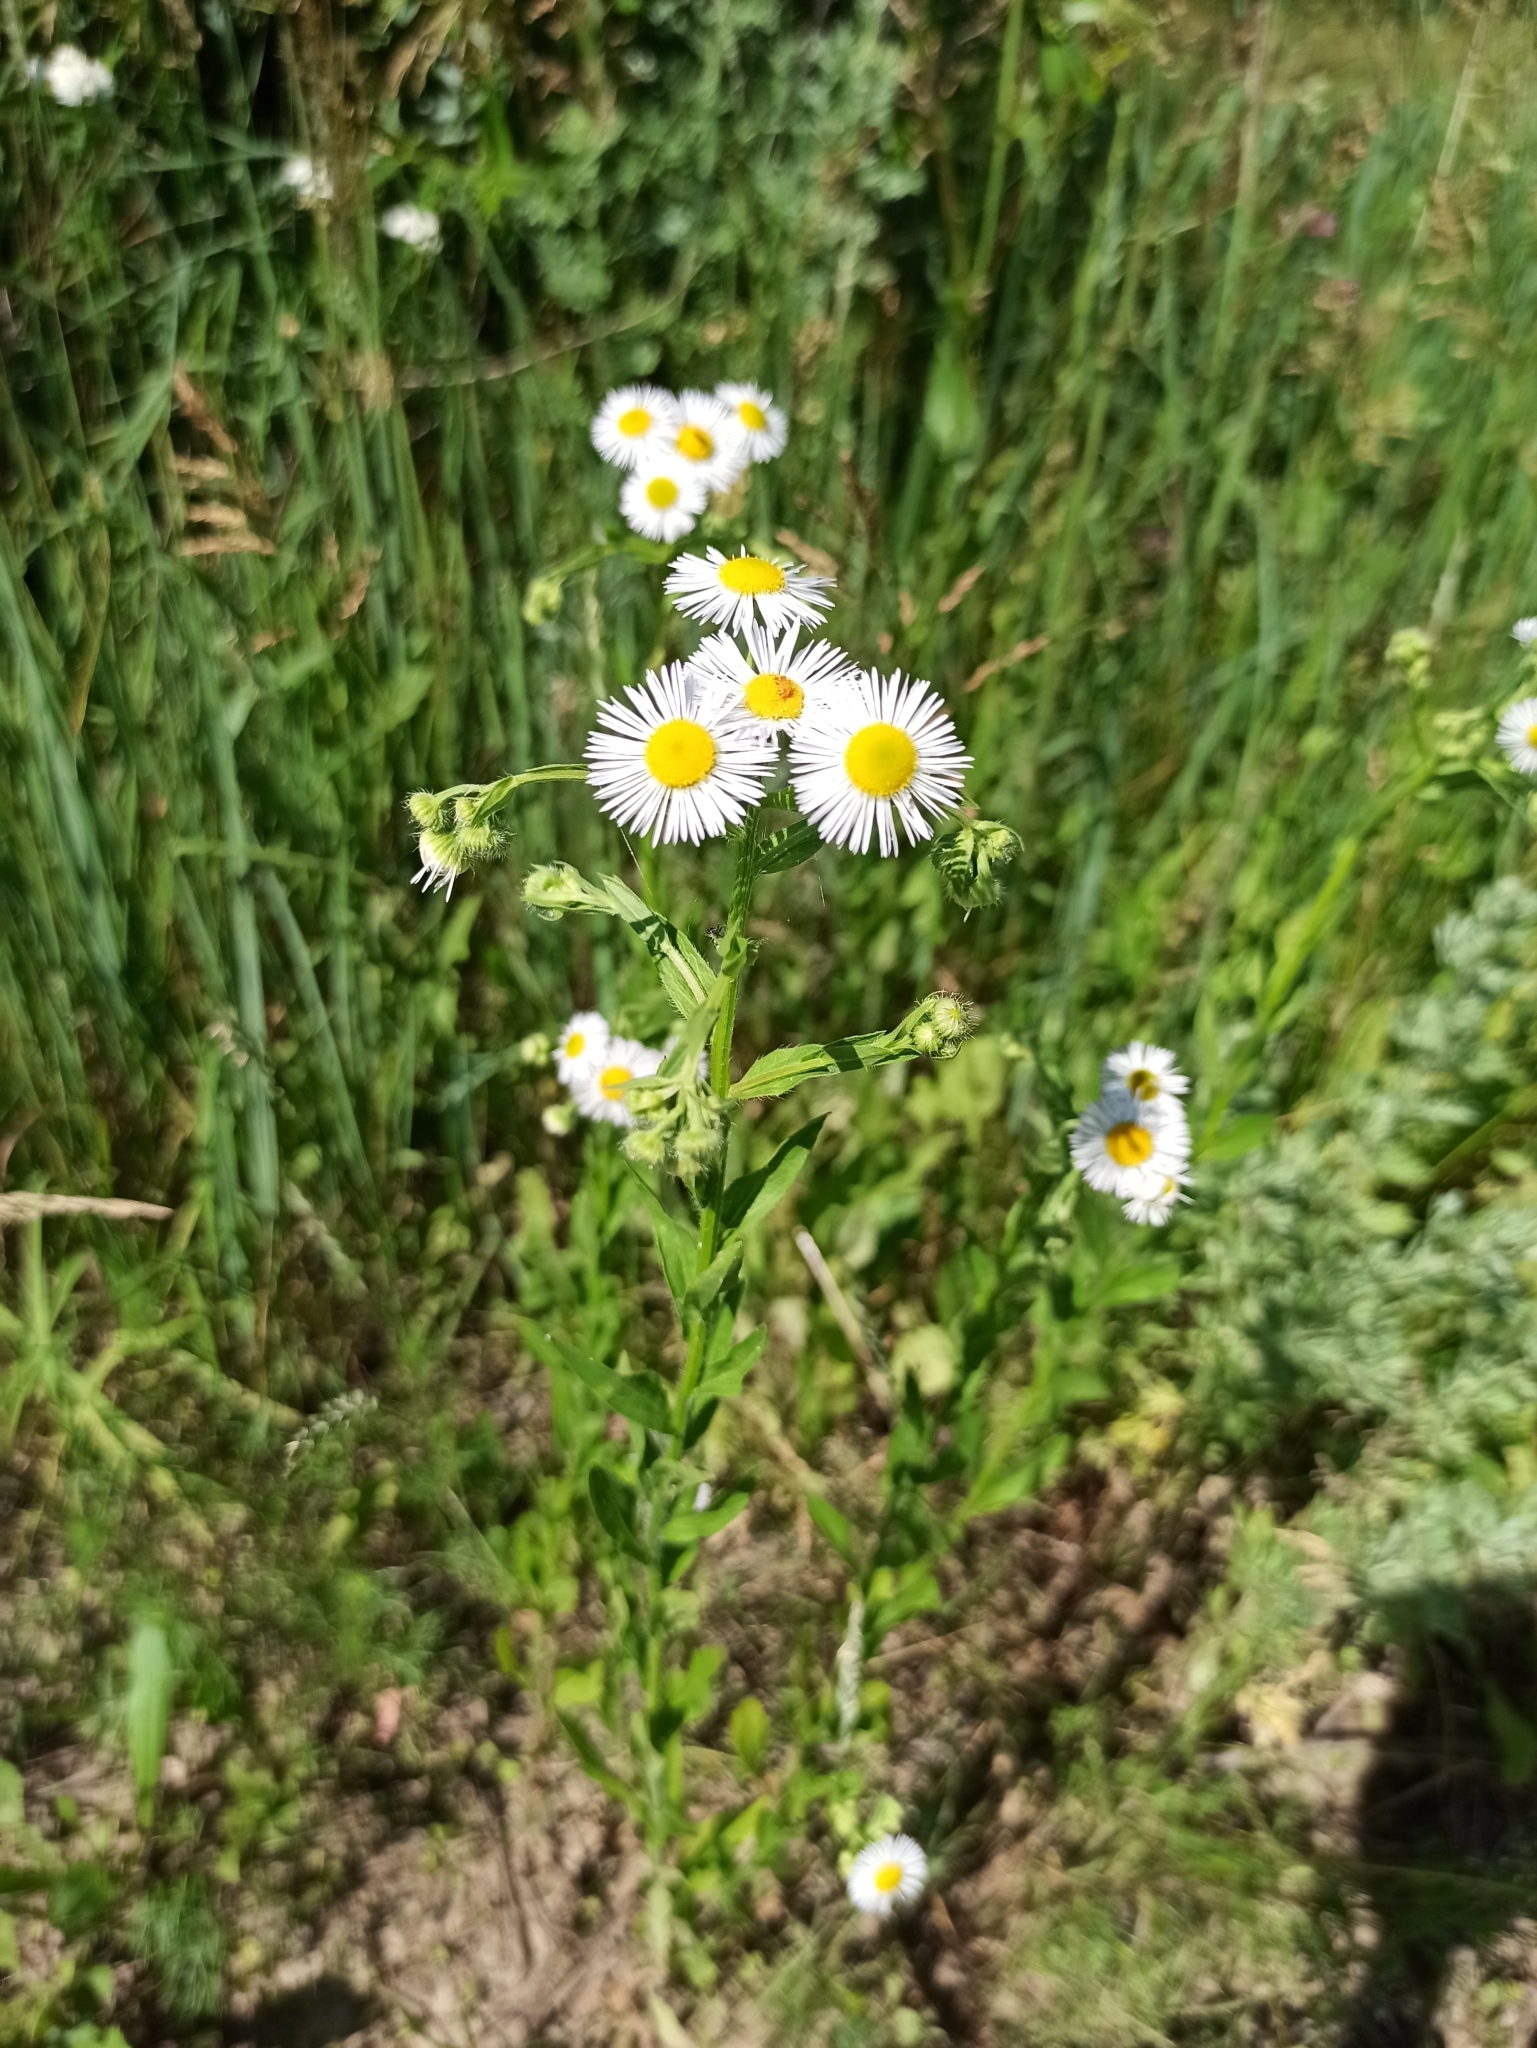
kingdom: Plantae
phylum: Tracheophyta
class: Magnoliopsida
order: Asterales
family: Asteraceae
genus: Erigeron
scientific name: Erigeron annuus
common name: Tall fleabane
